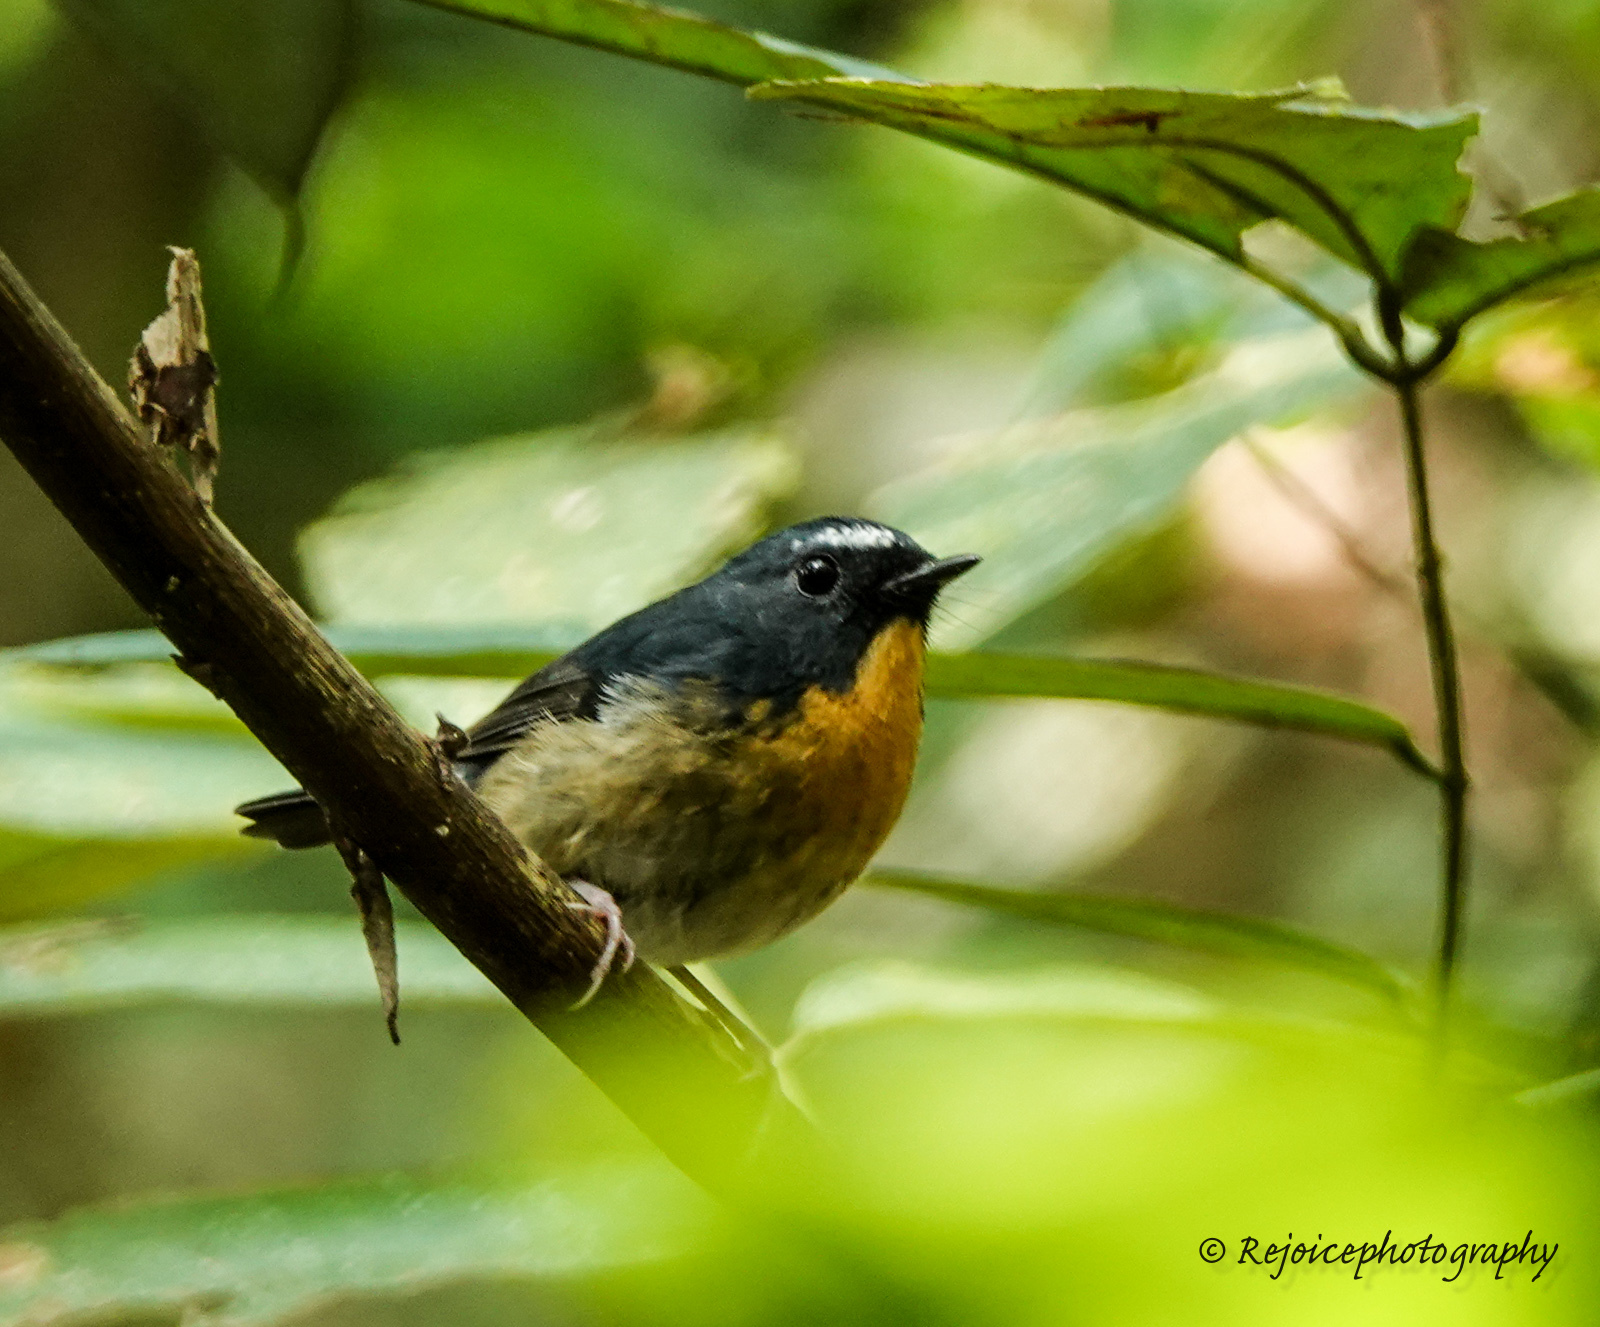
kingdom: Animalia
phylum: Chordata
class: Aves
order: Passeriformes
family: Muscicapidae
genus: Ficedula
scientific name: Ficedula hyperythra
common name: Snowy-browed flycatcher
